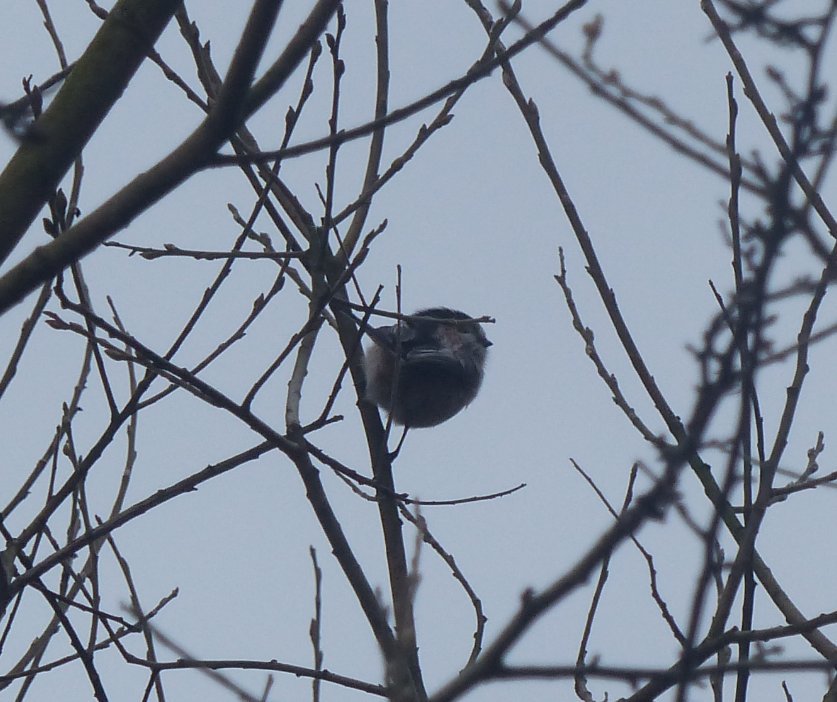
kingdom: Animalia
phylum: Chordata
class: Aves
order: Passeriformes
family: Aegithalidae
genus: Aegithalos
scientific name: Aegithalos caudatus
